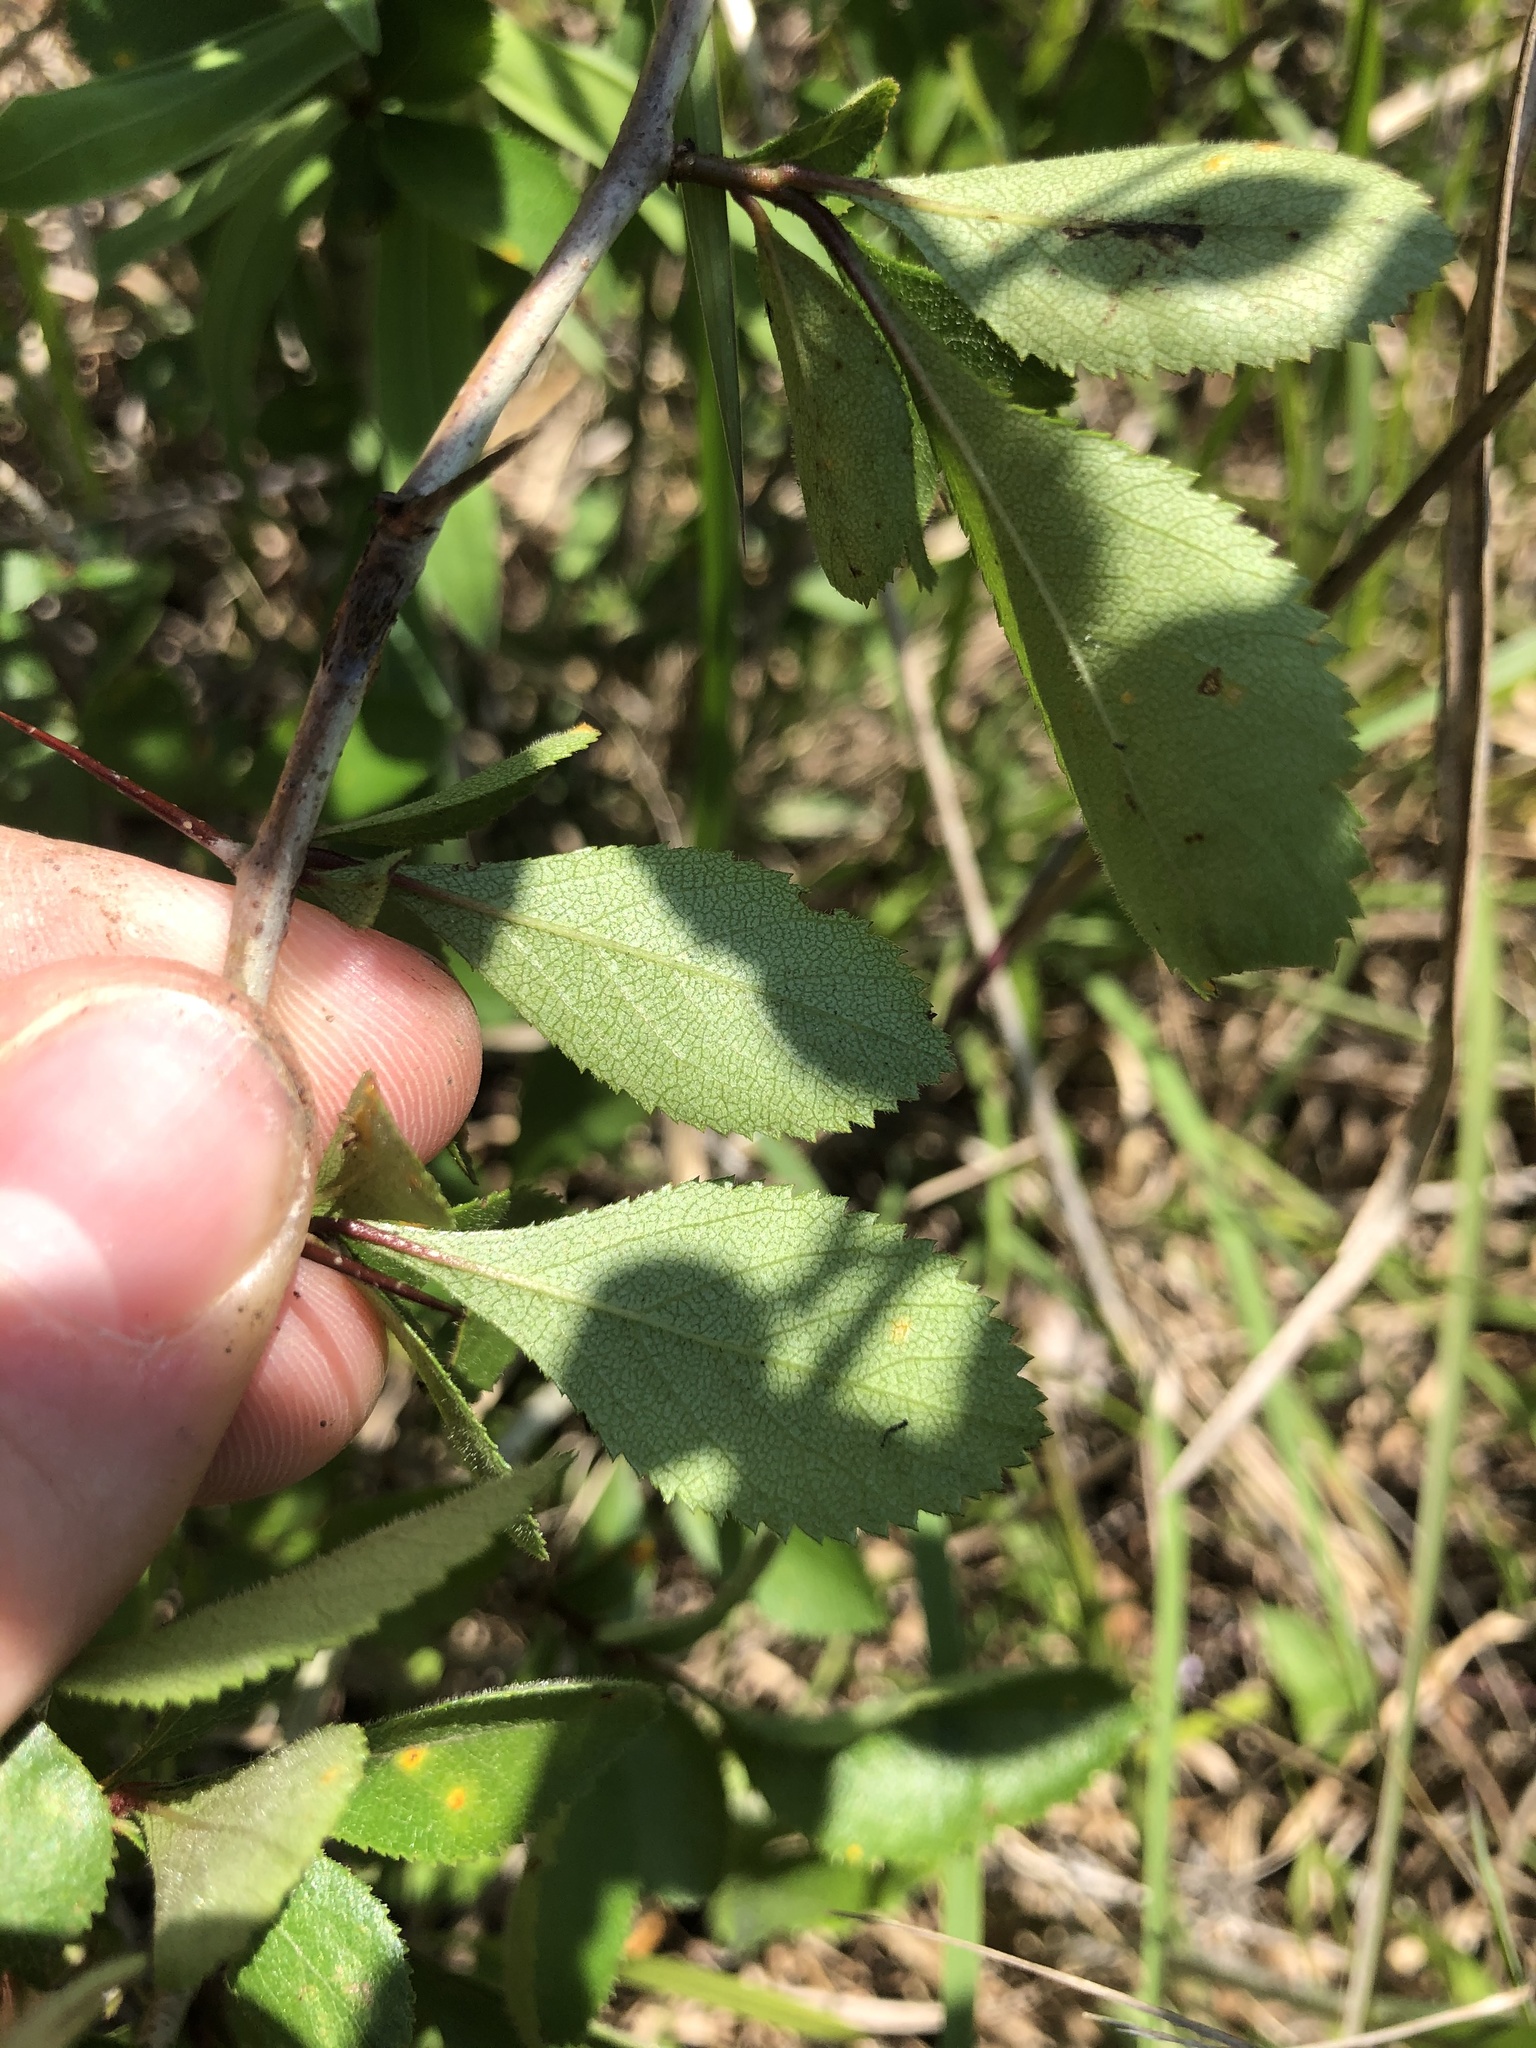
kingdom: Plantae
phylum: Tracheophyta
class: Magnoliopsida
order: Rosales
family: Rosaceae
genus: Crataegus
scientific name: Crataegus berberifolia
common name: Barberry hawthorn
